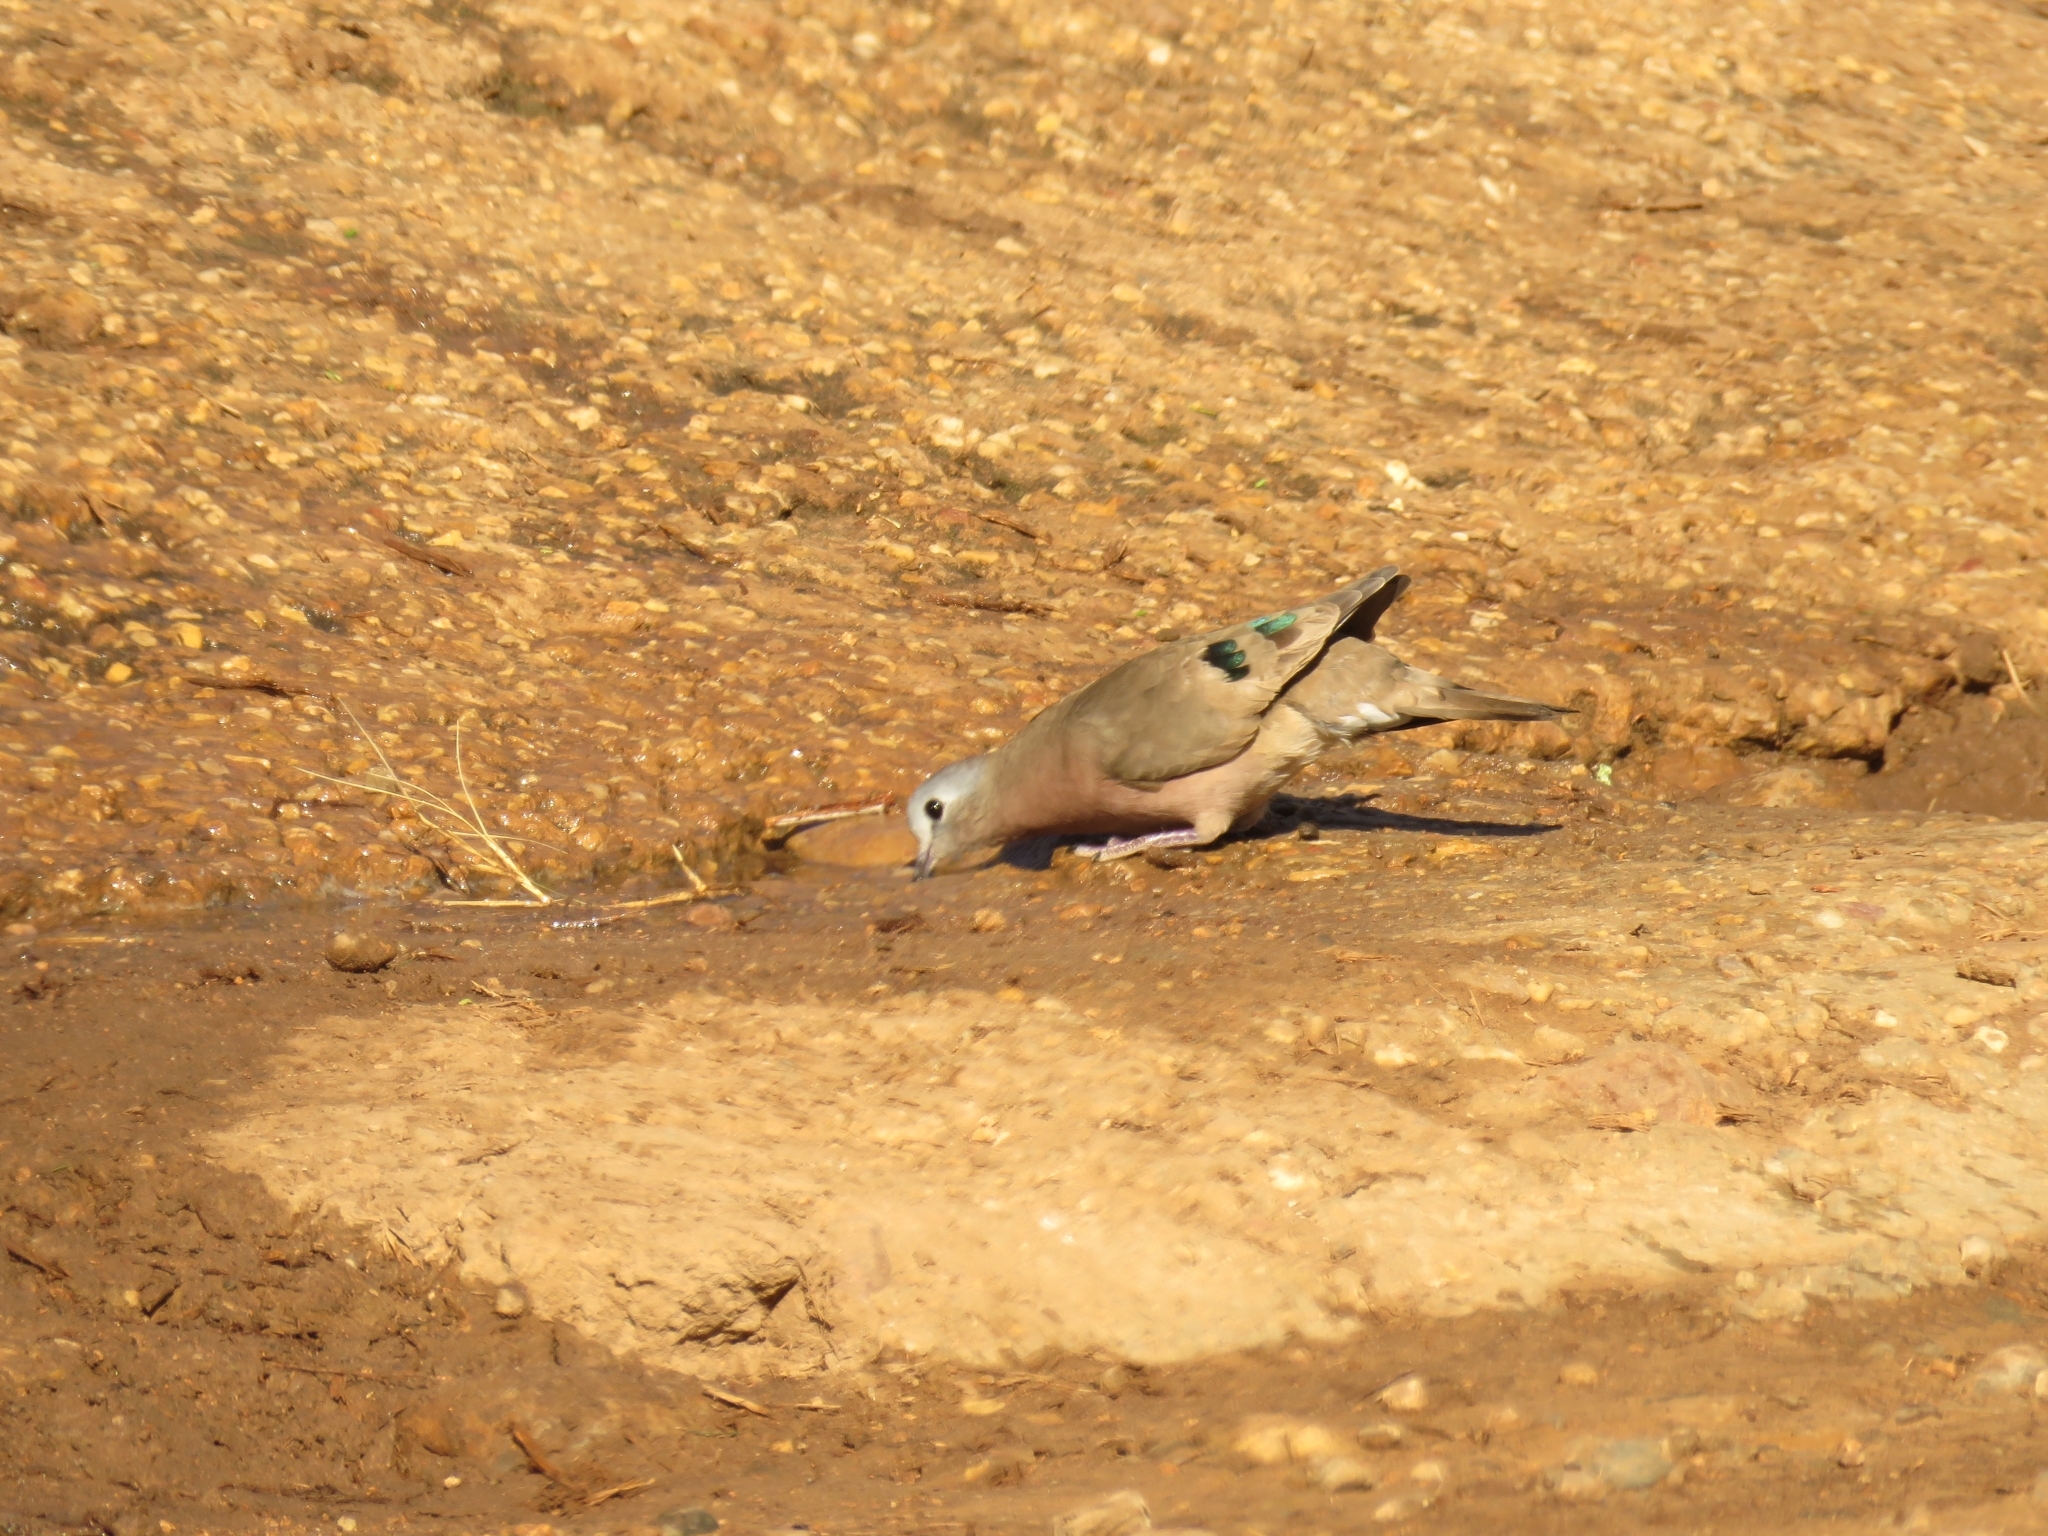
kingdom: Animalia
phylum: Chordata
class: Aves
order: Columbiformes
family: Columbidae
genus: Turtur
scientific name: Turtur chalcospilos
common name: Emerald-spotted wood dove
